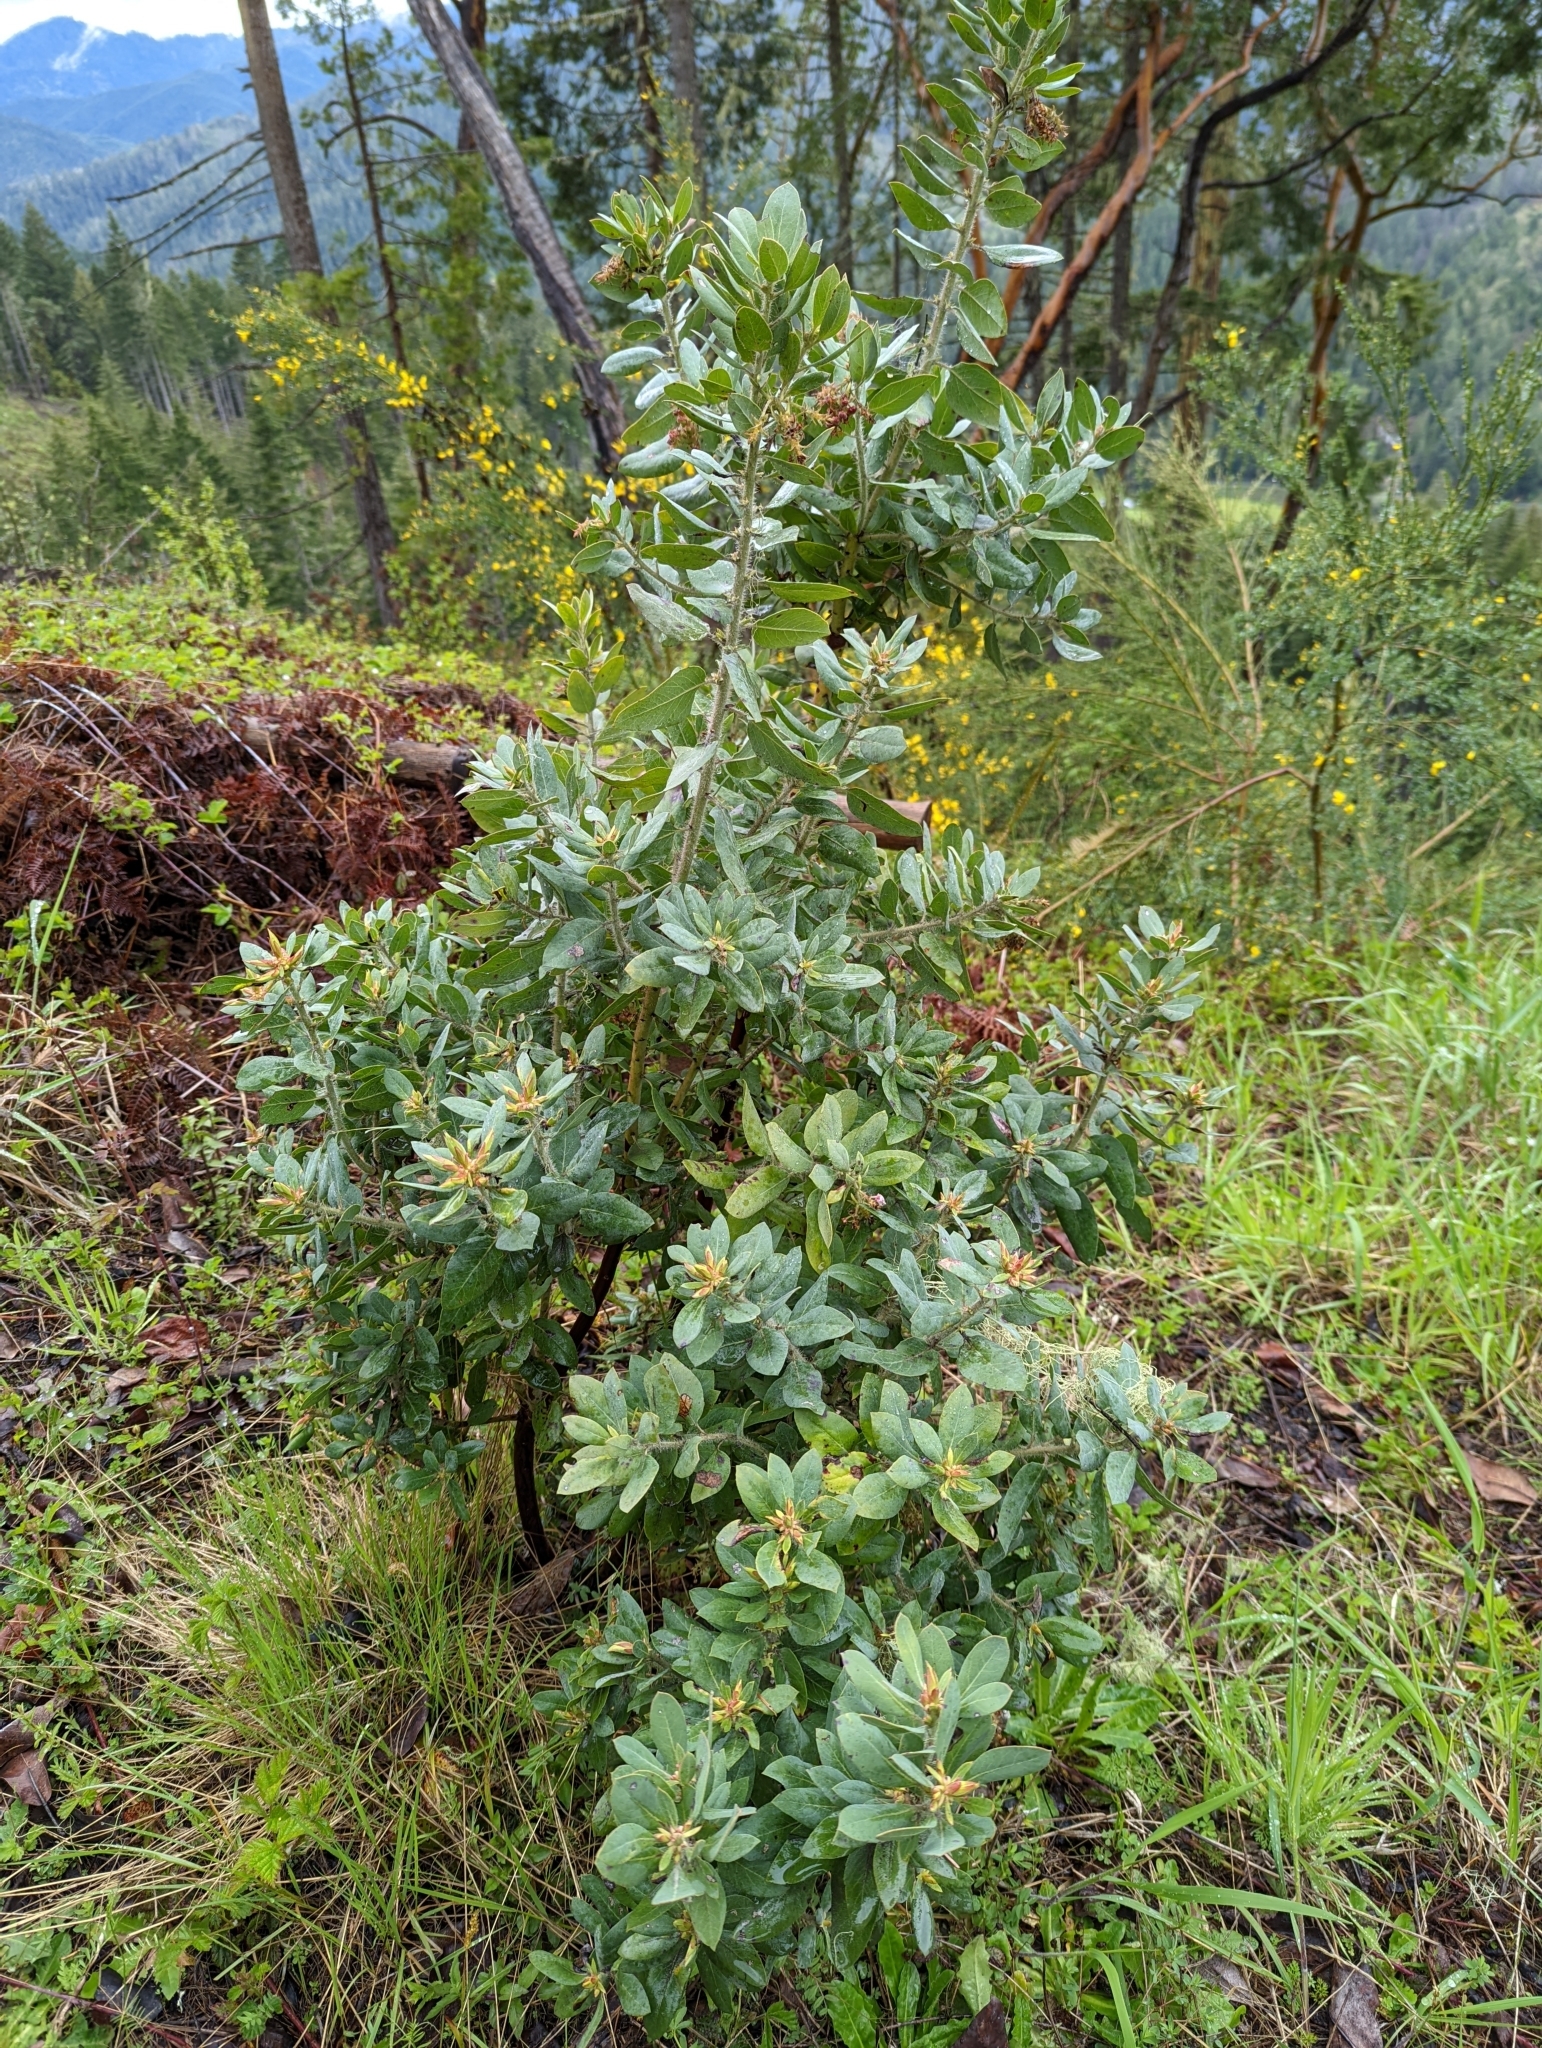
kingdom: Plantae
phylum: Tracheophyta
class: Magnoliopsida
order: Ericales
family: Ericaceae
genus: Arctostaphylos
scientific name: Arctostaphylos columbiana
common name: Bristly bearberry
